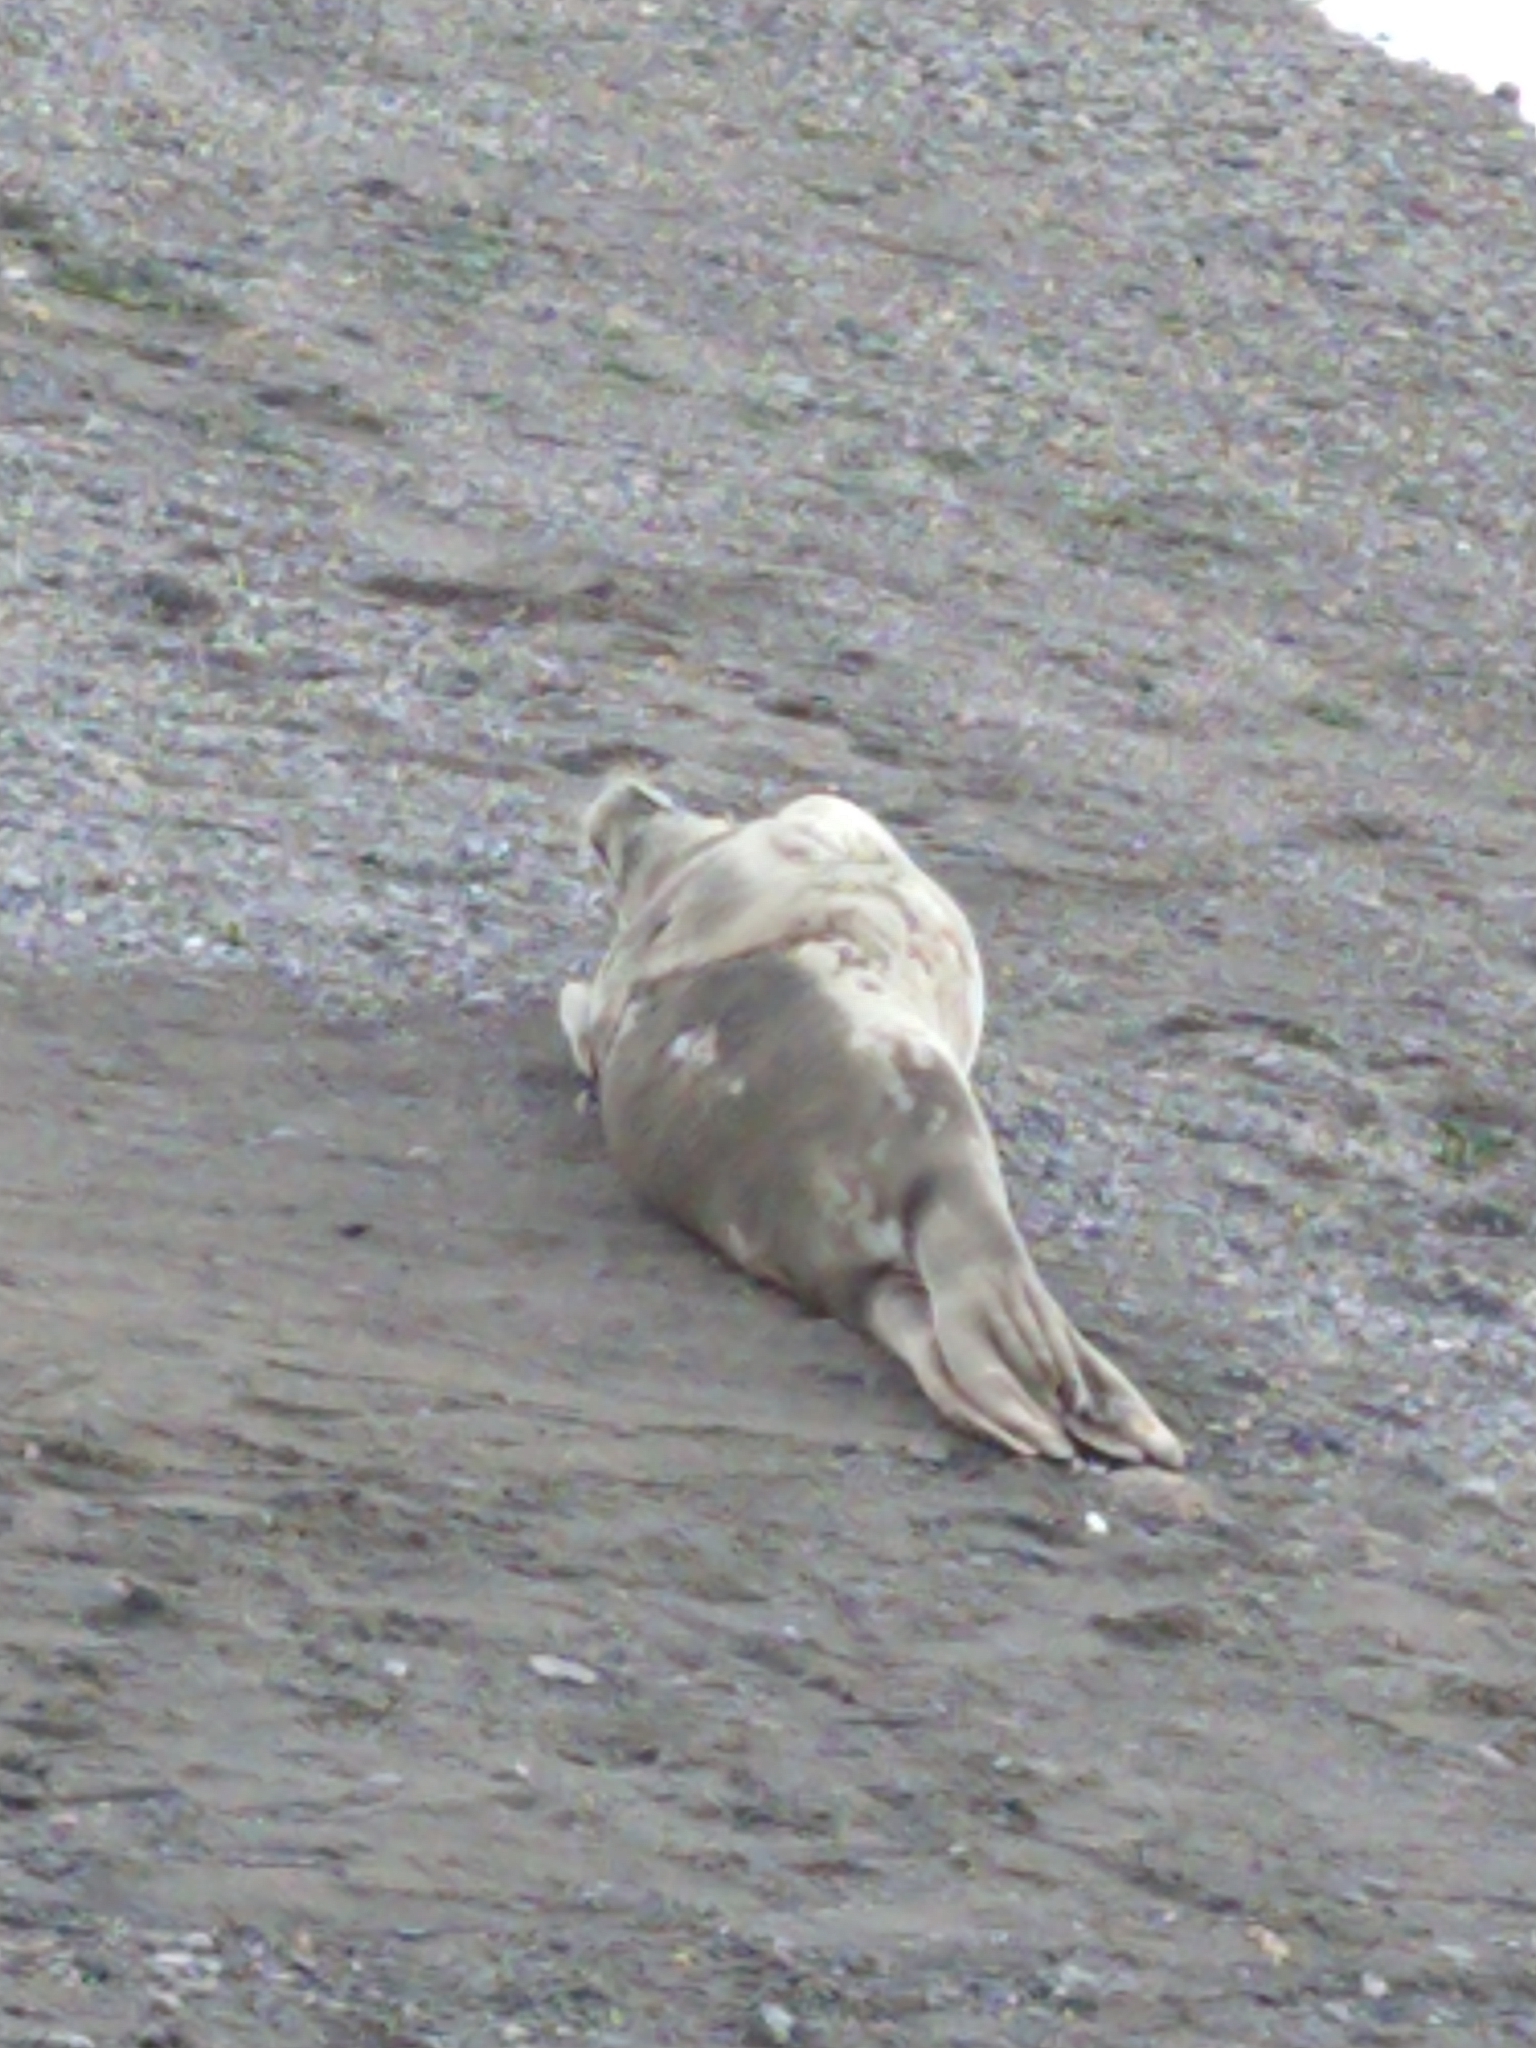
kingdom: Animalia
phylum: Chordata
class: Mammalia
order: Carnivora
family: Phocidae
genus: Lobodon
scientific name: Lobodon carcinophaga
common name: Crabeater seal
